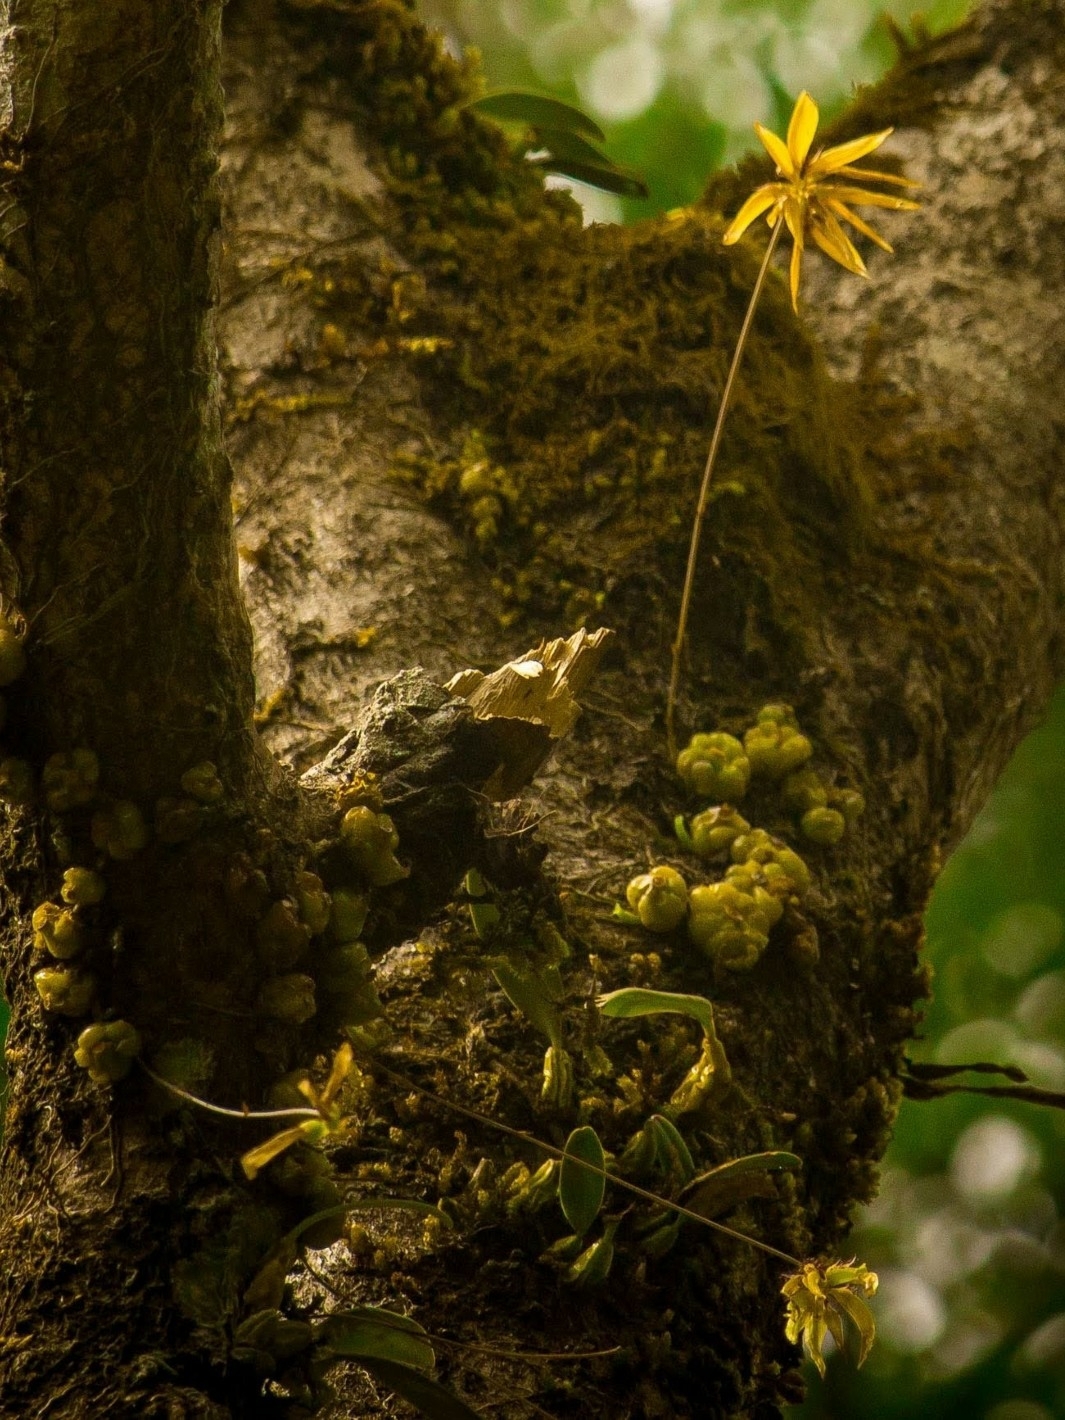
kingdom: Plantae
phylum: Tracheophyta
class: Liliopsida
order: Asparagales
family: Orchidaceae
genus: Bulbophyllum
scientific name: Bulbophyllum fimbriatum
